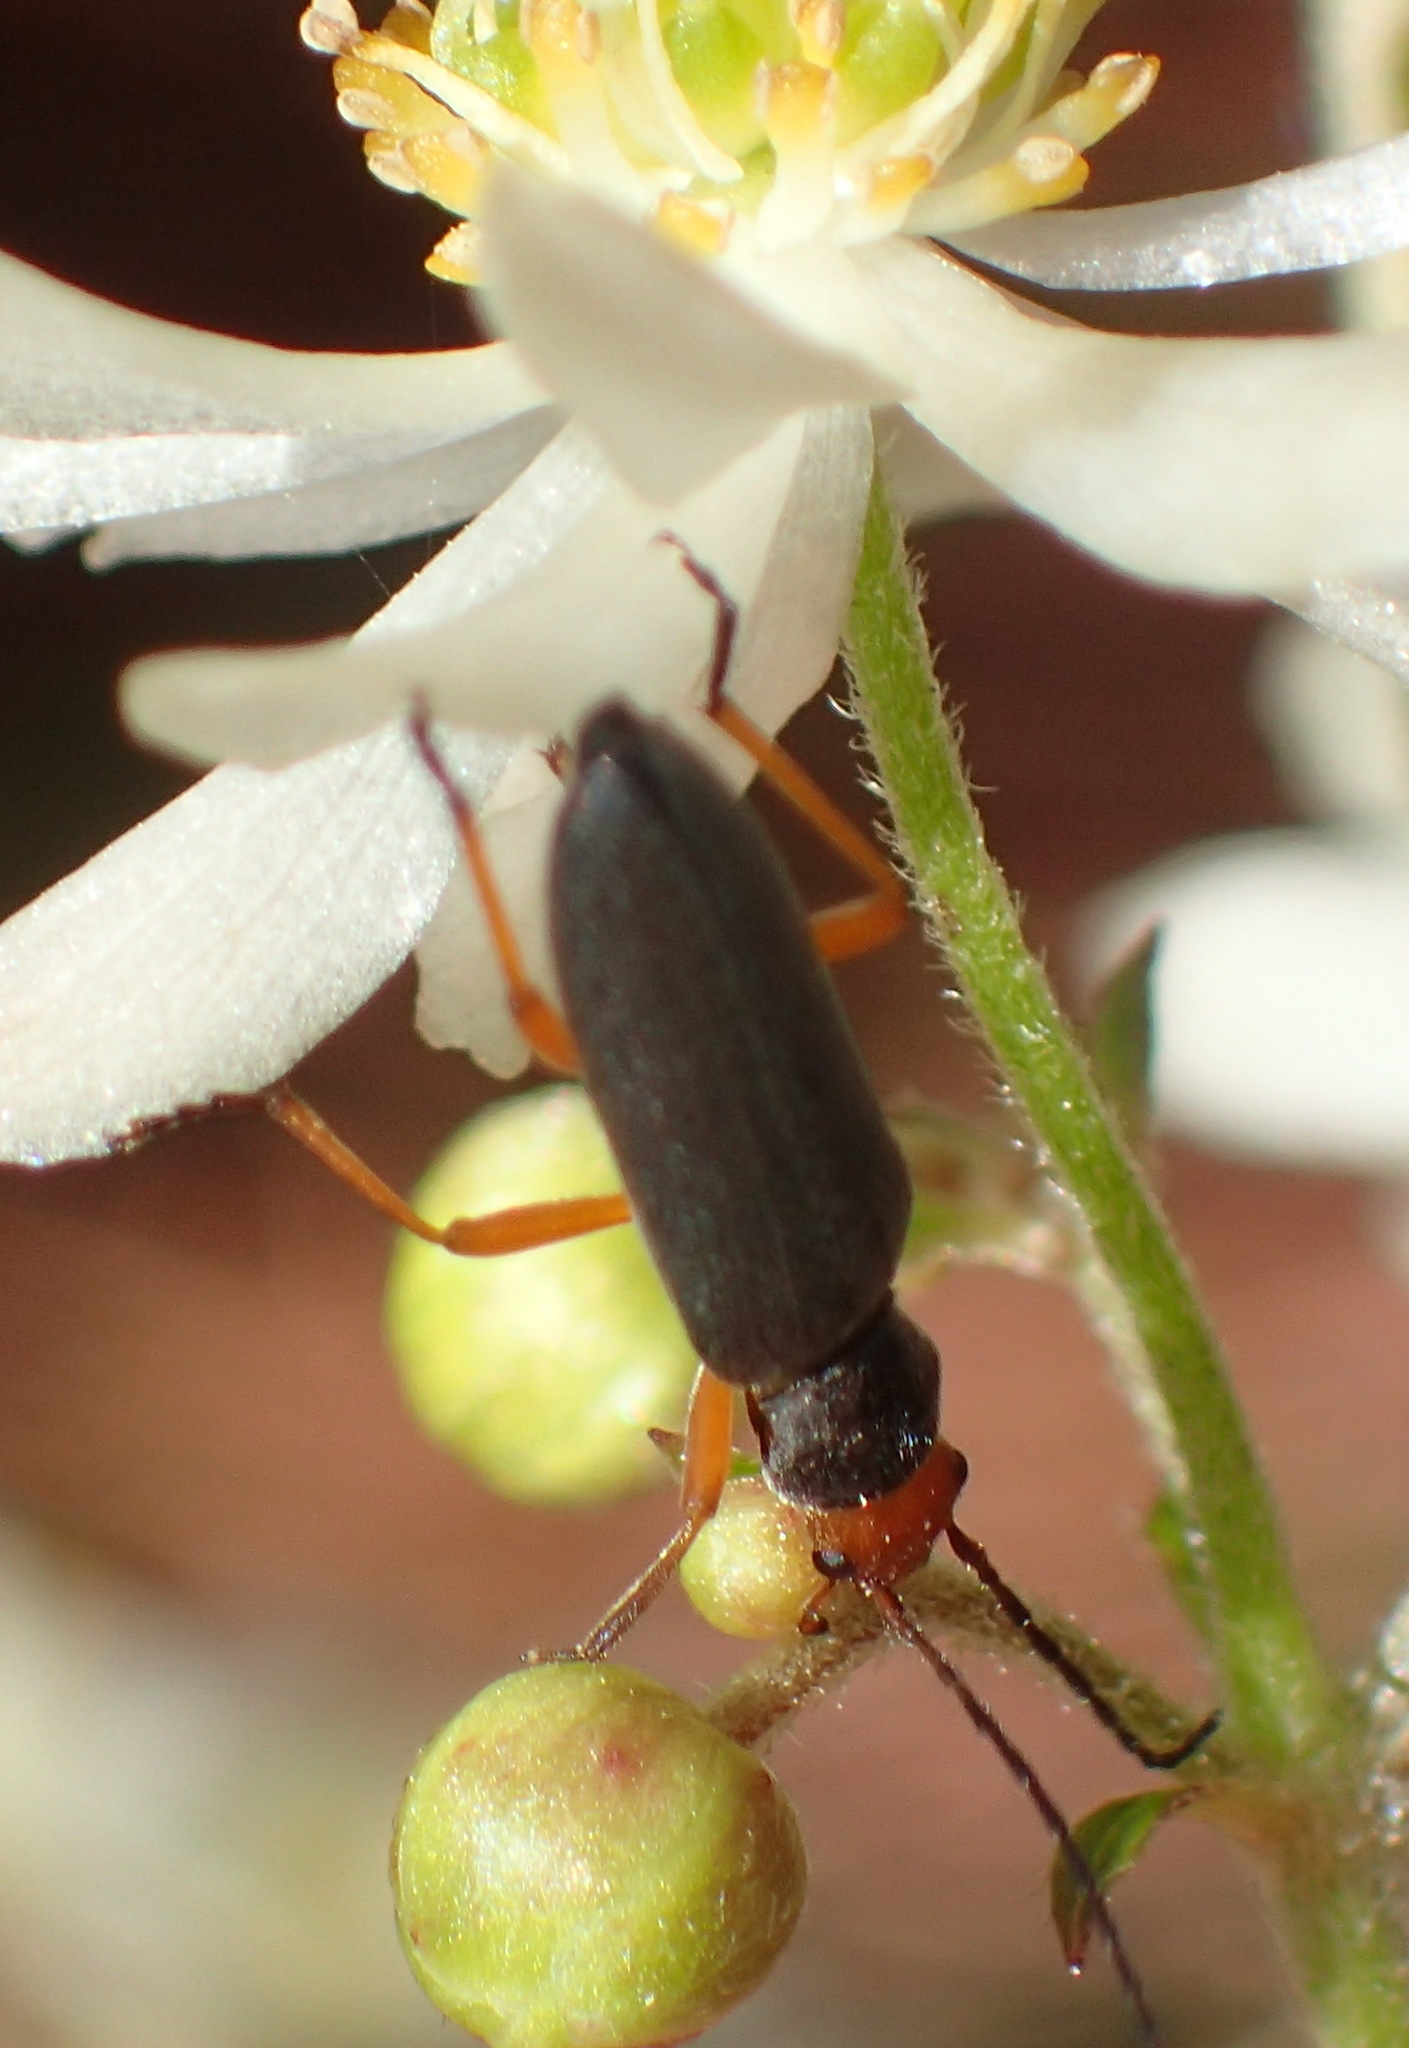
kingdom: Animalia
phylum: Arthropoda
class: Insecta
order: Coleoptera
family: Oedemeridae
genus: Melananthia
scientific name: Melananthia
